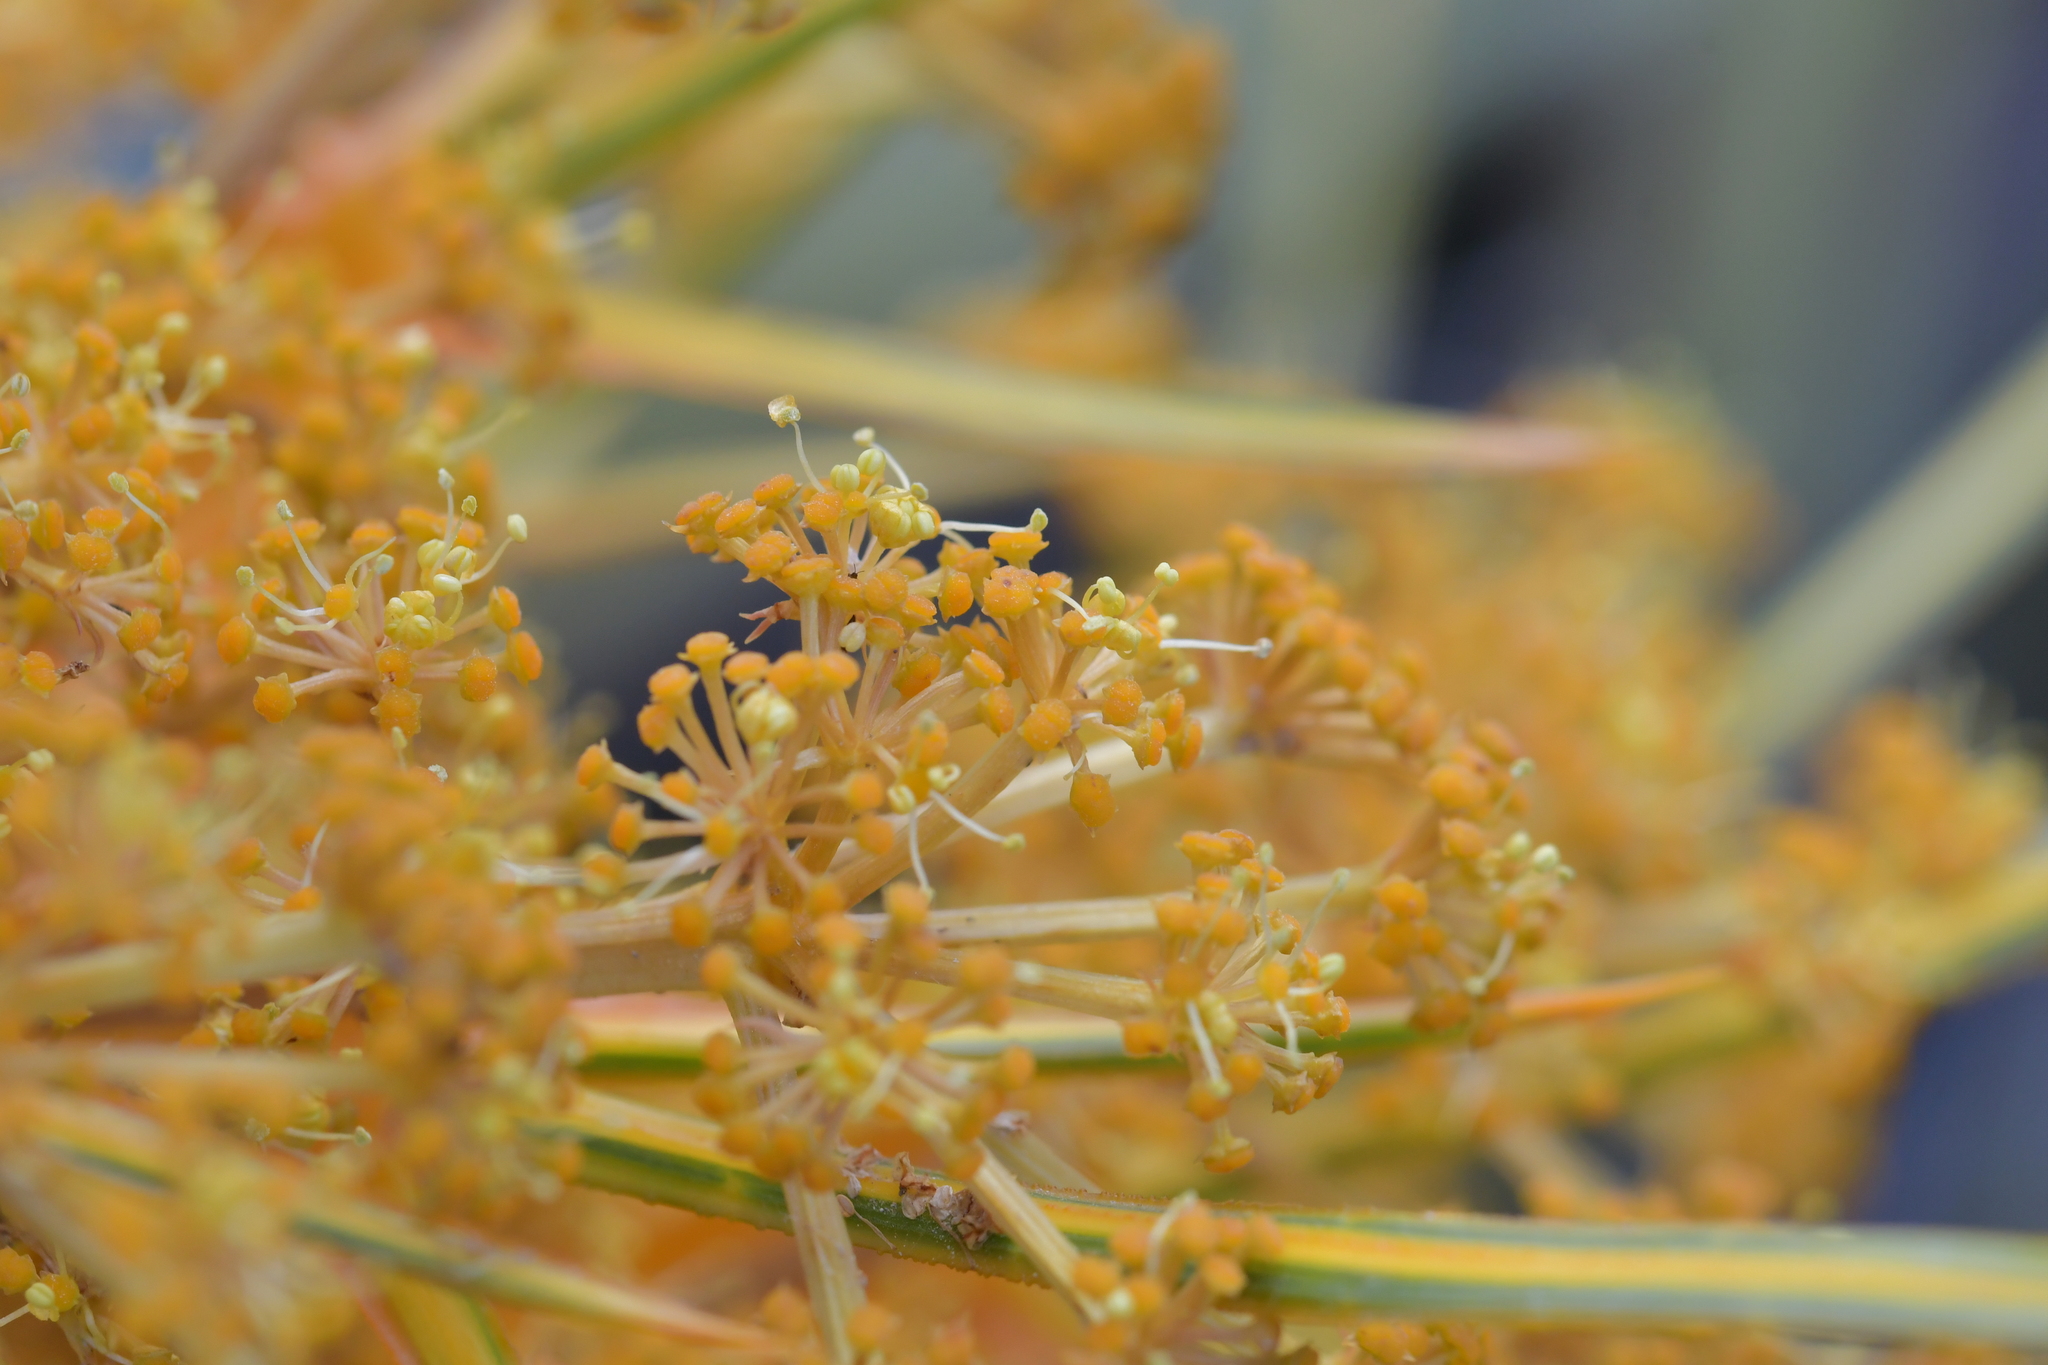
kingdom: Plantae
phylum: Tracheophyta
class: Magnoliopsida
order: Apiales
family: Apiaceae
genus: Aciphylla
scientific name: Aciphylla colensoi
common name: Colenso's spaniard
